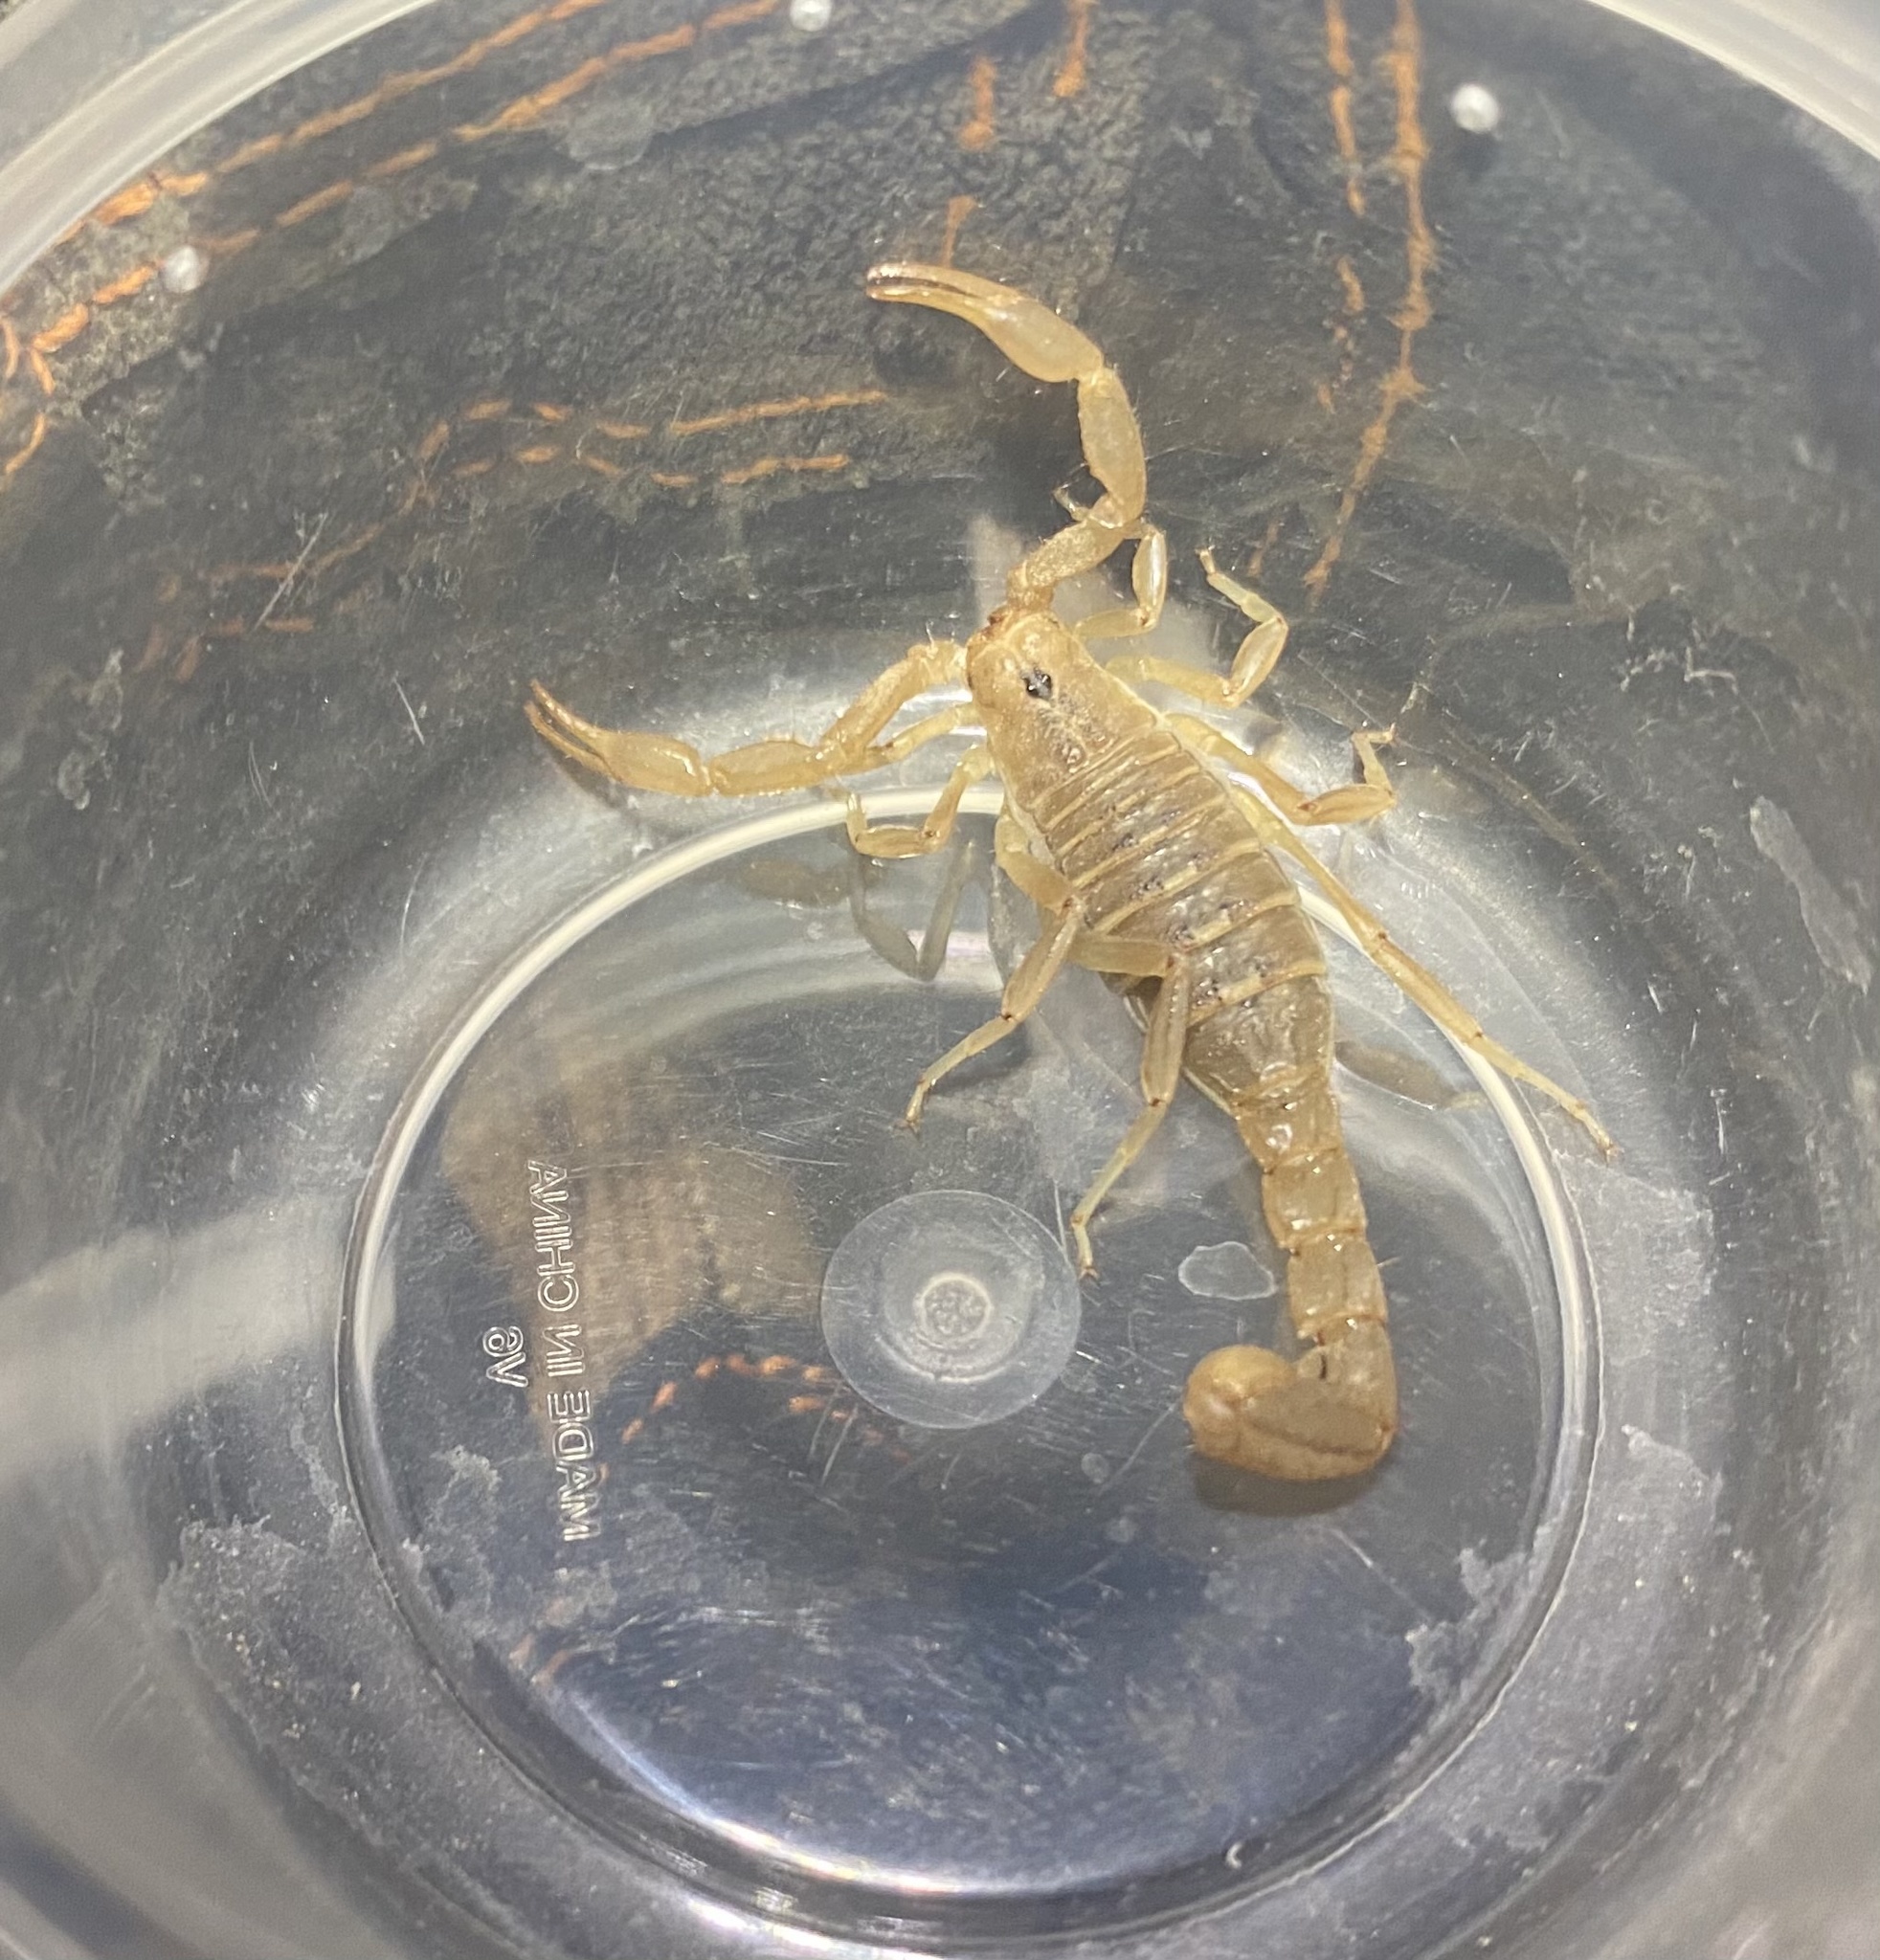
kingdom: Animalia
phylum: Arthropoda
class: Arachnida
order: Scorpiones
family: Vaejovidae
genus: Paravaejovis
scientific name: Paravaejovis spinigerus
